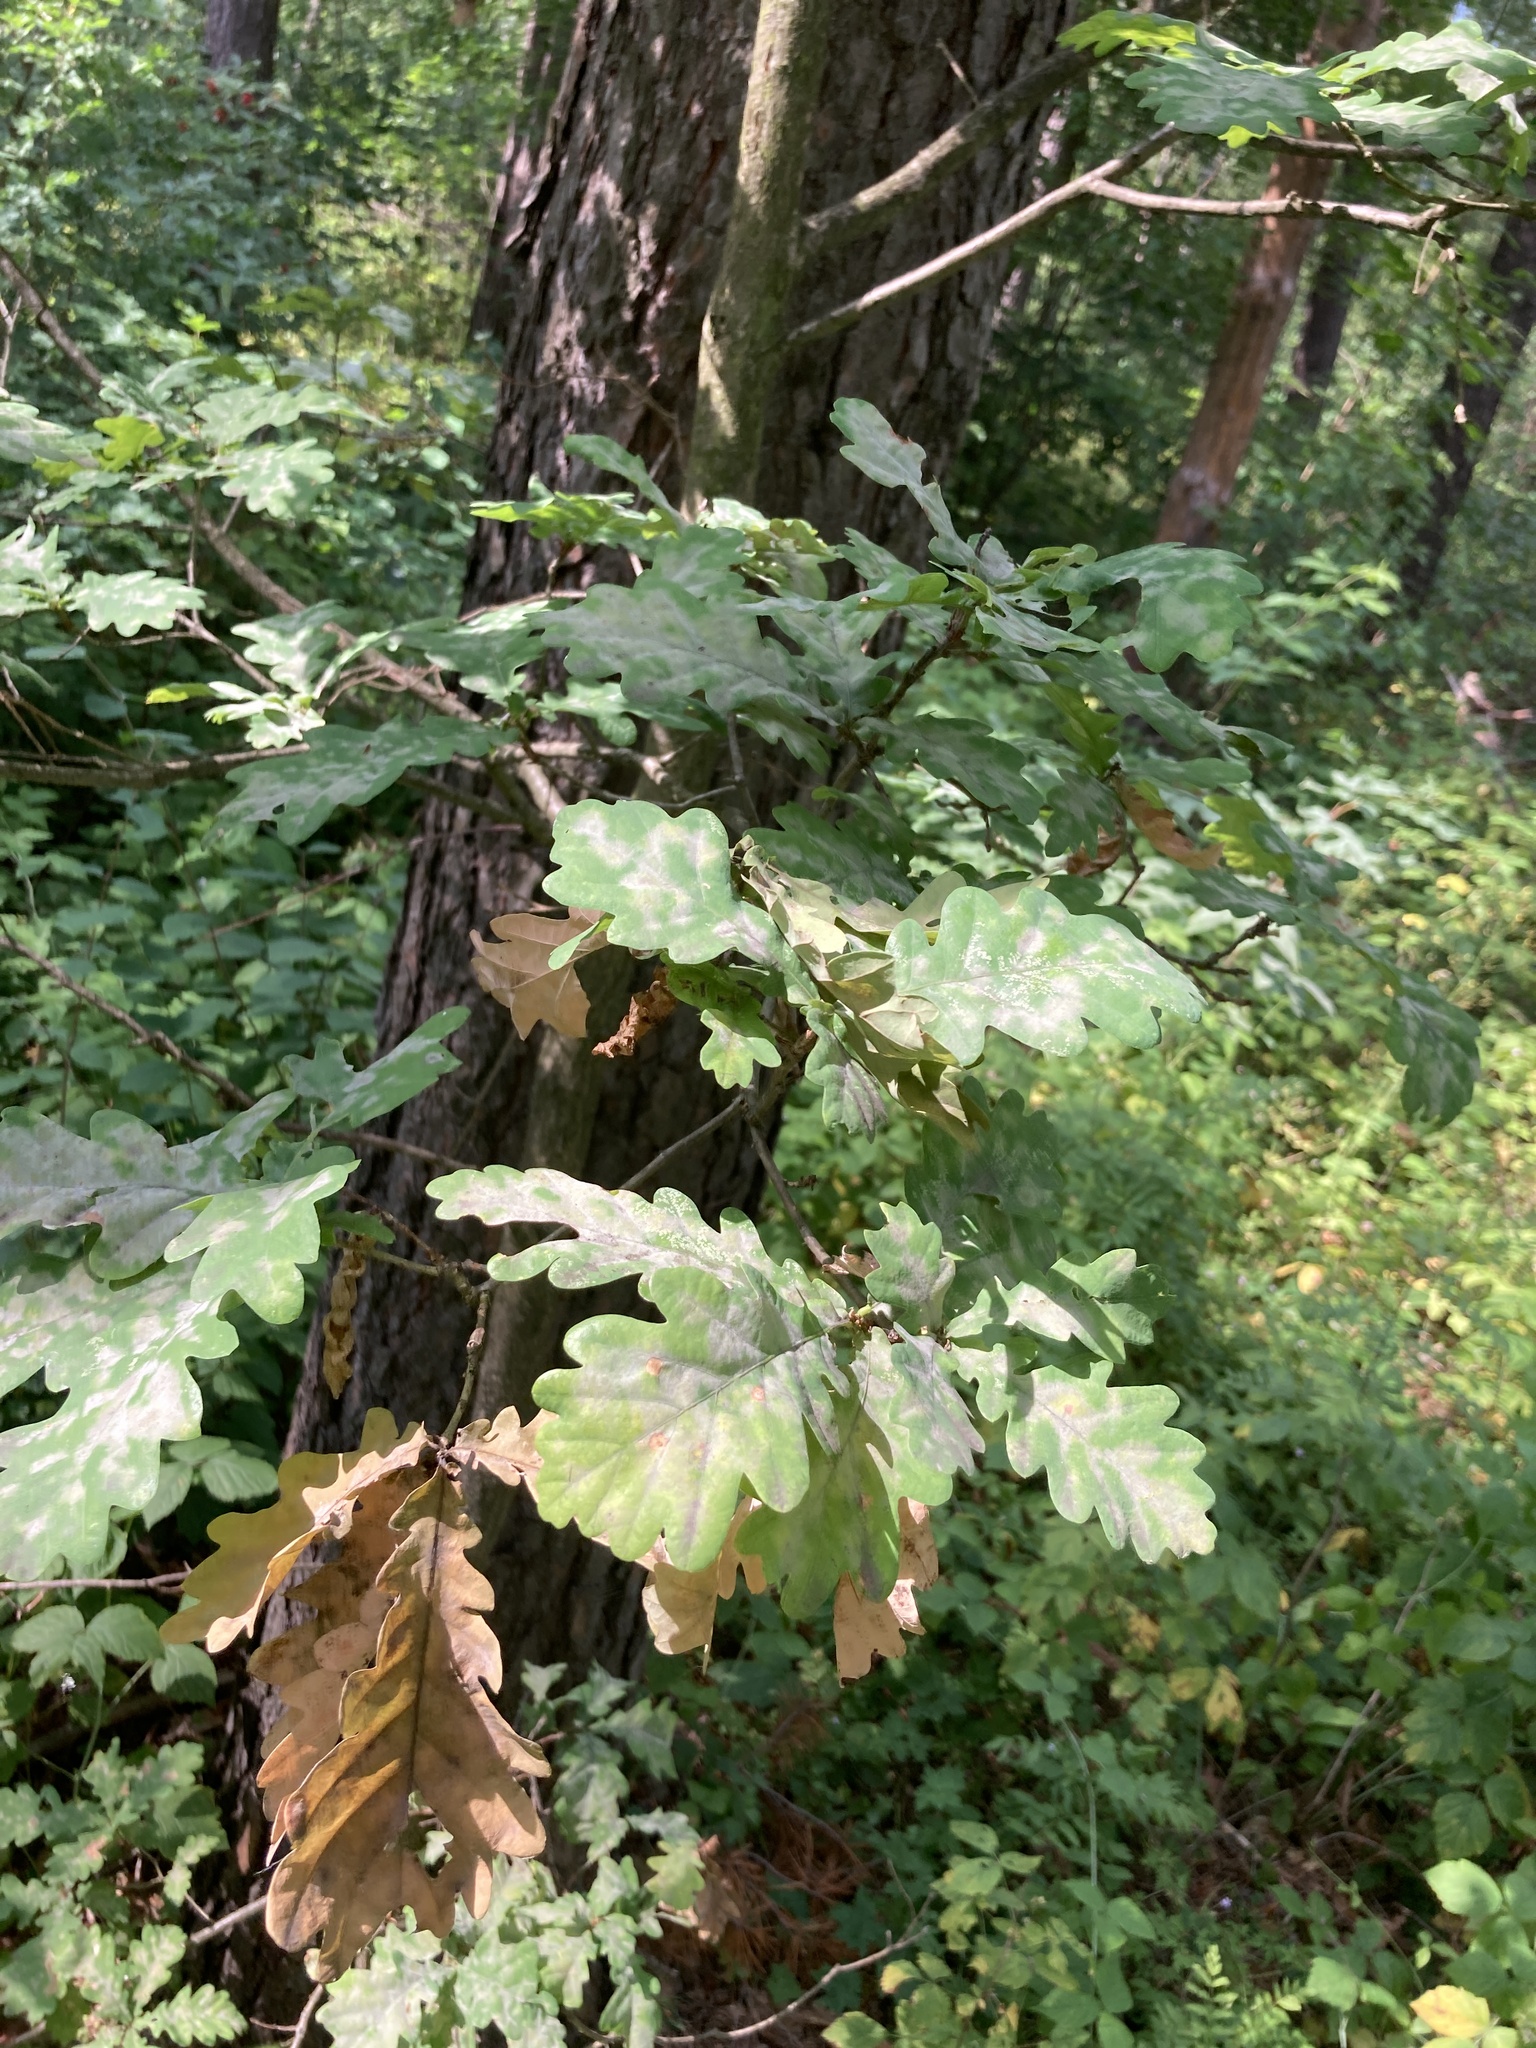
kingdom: Plantae
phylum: Tracheophyta
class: Magnoliopsida
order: Fagales
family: Fagaceae
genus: Quercus
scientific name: Quercus robur
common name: Pedunculate oak
